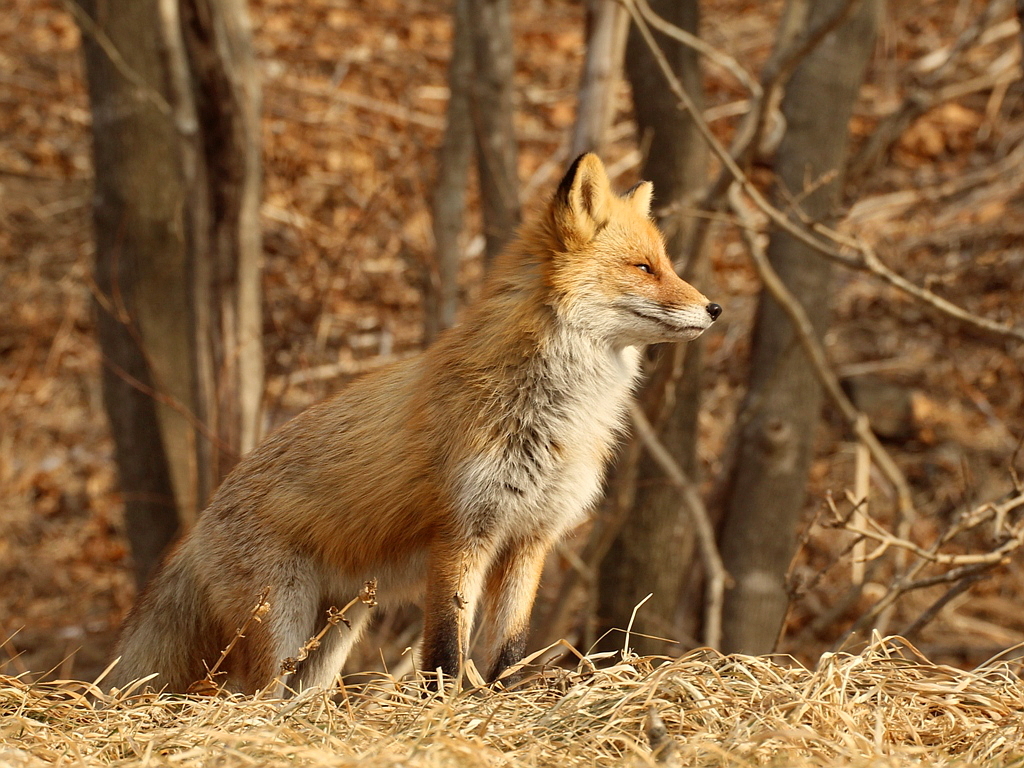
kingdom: Animalia
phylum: Chordata
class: Mammalia
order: Carnivora
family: Canidae
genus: Vulpes
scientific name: Vulpes vulpes
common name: Red fox
